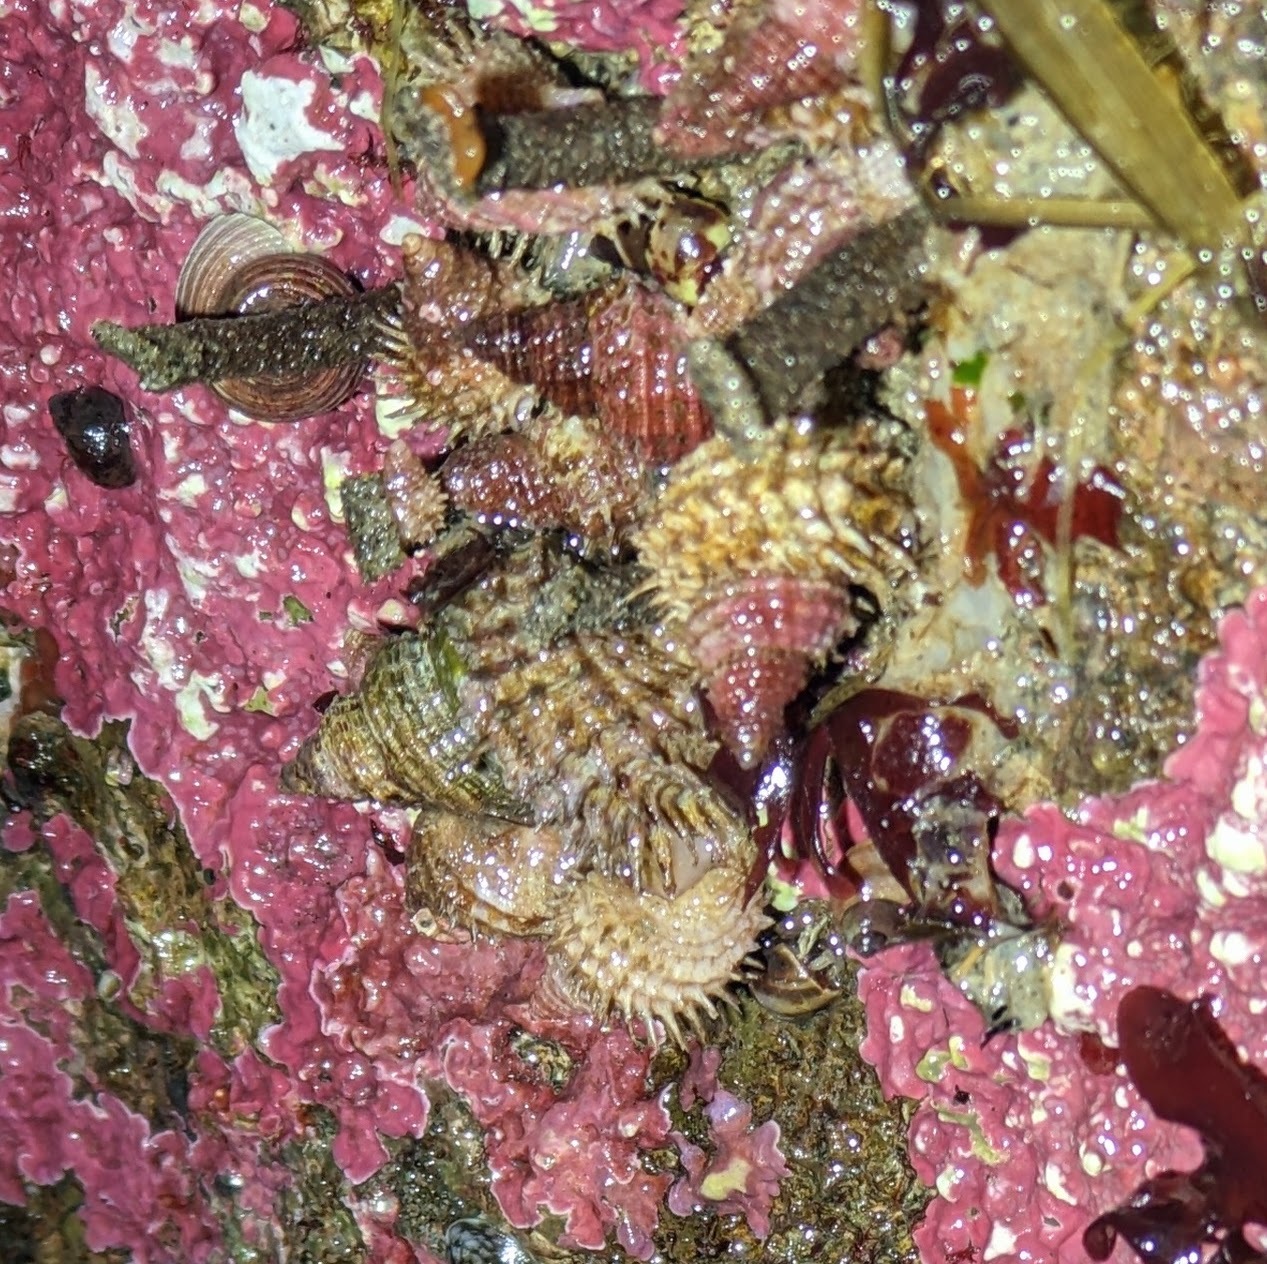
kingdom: Animalia
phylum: Mollusca
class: Gastropoda
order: Littorinimorpha
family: Capulidae
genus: Trichotropis
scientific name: Trichotropis cancellata
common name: Cancellate hairysnail
